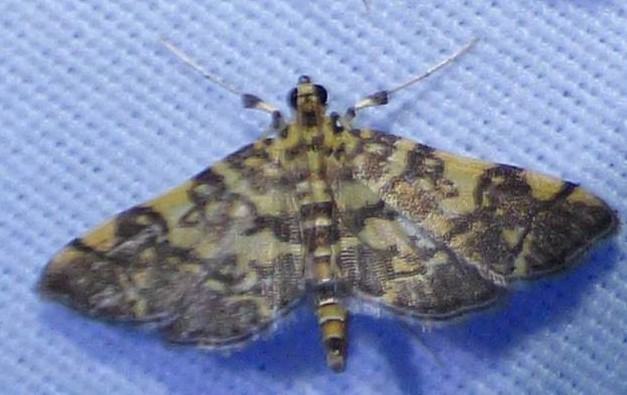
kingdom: Animalia
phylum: Arthropoda
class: Insecta
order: Lepidoptera
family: Crambidae
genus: Apogeshna
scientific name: Apogeshna stenialis
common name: Checkered apogeshna moth
